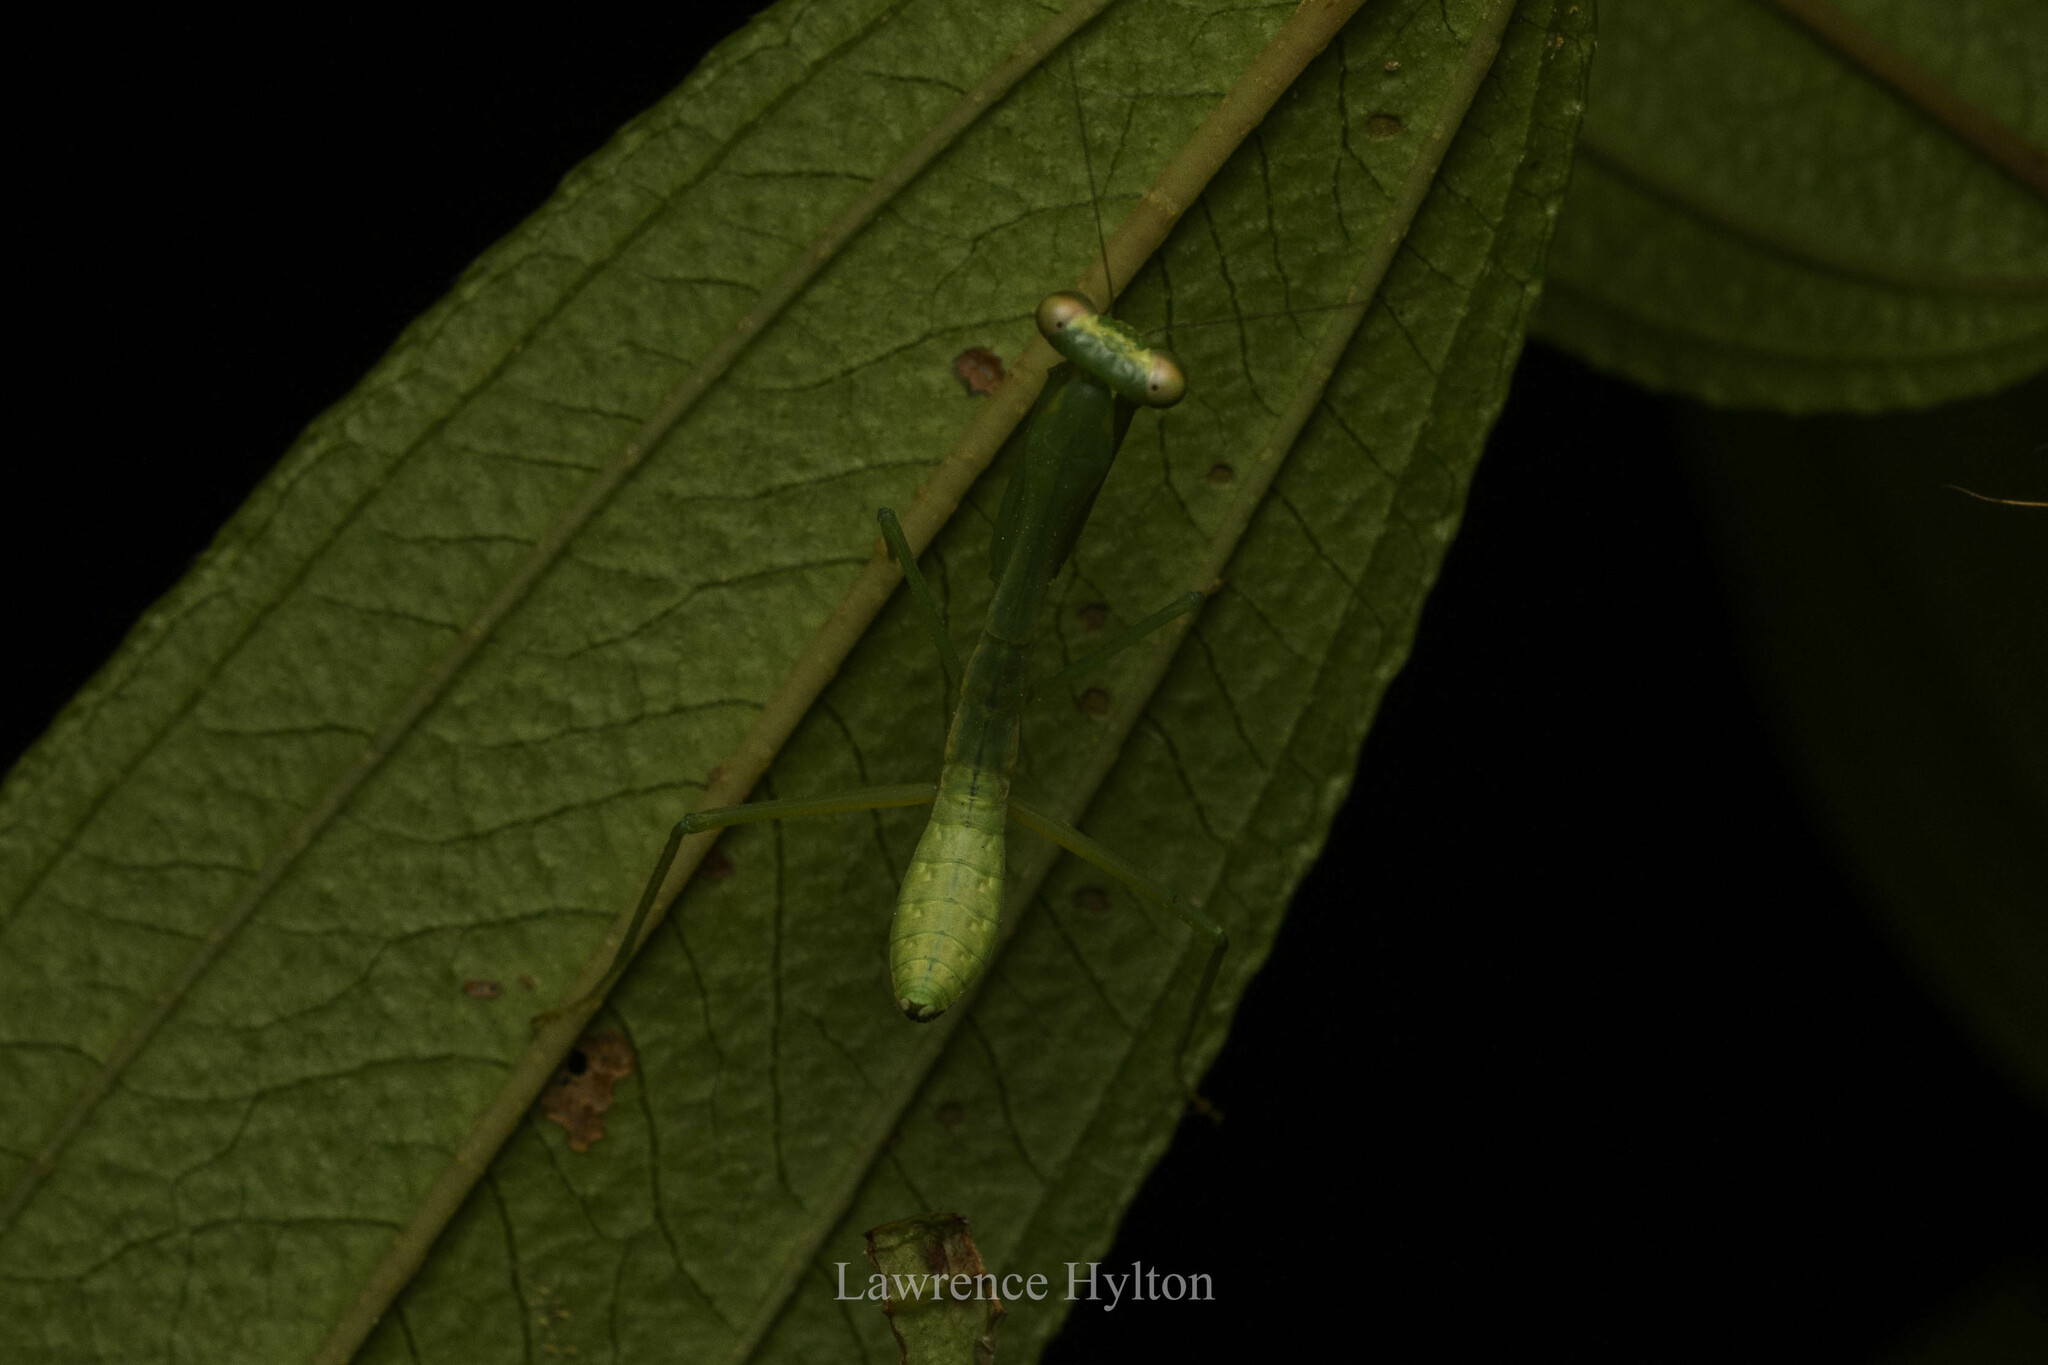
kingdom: Animalia
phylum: Arthropoda
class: Insecta
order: Mantodea
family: Mantidae
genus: Titanodula
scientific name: Titanodula formosana
